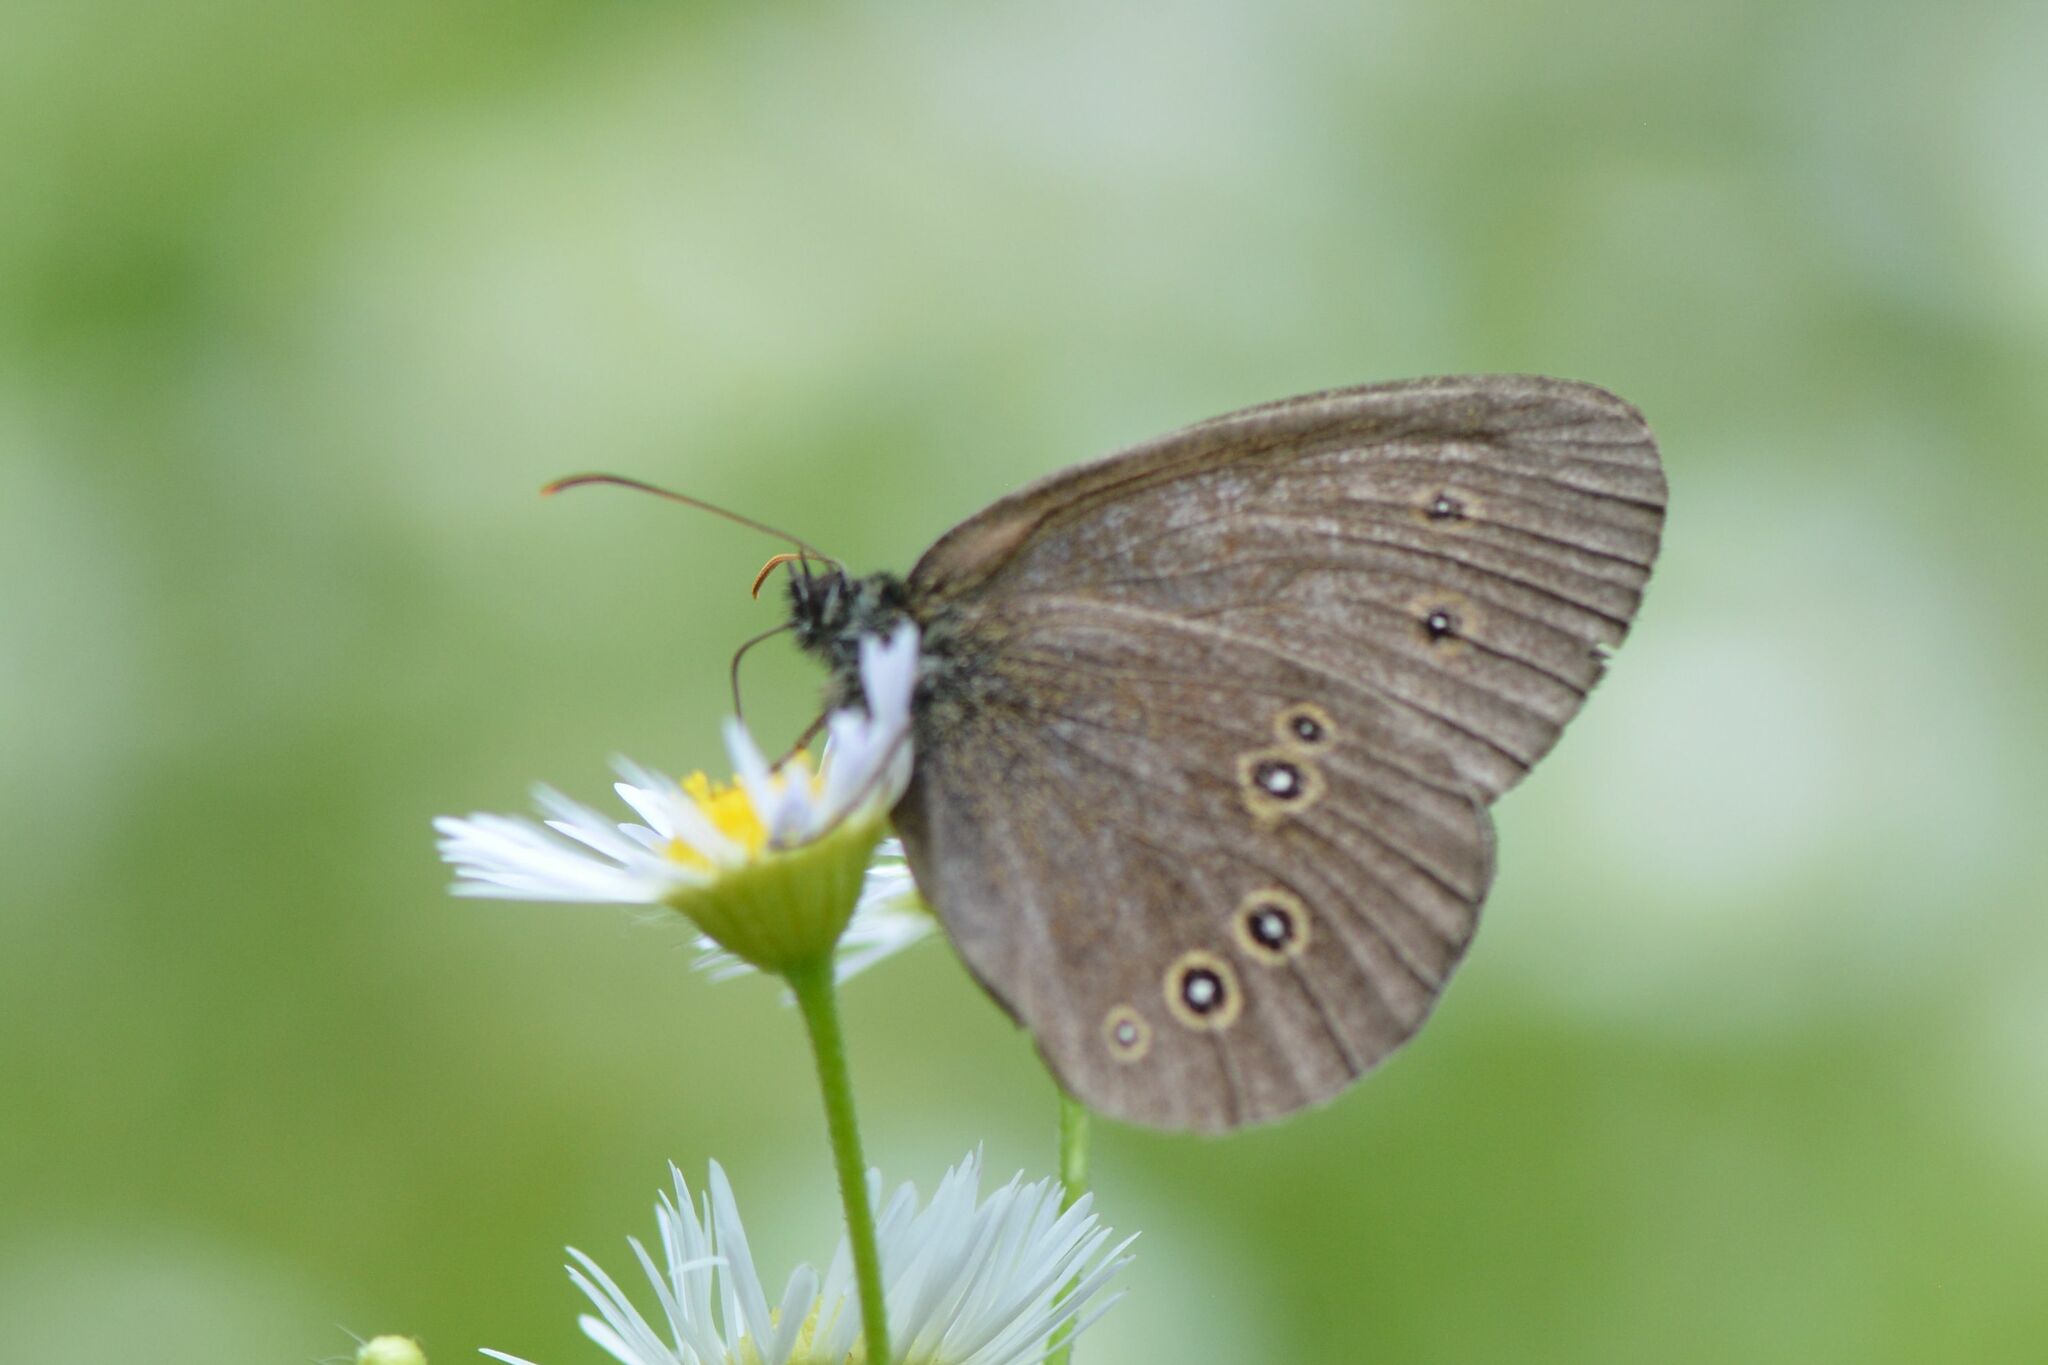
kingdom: Animalia
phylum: Arthropoda
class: Insecta
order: Lepidoptera
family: Nymphalidae
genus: Aphantopus
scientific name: Aphantopus hyperantus
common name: Ringlet
